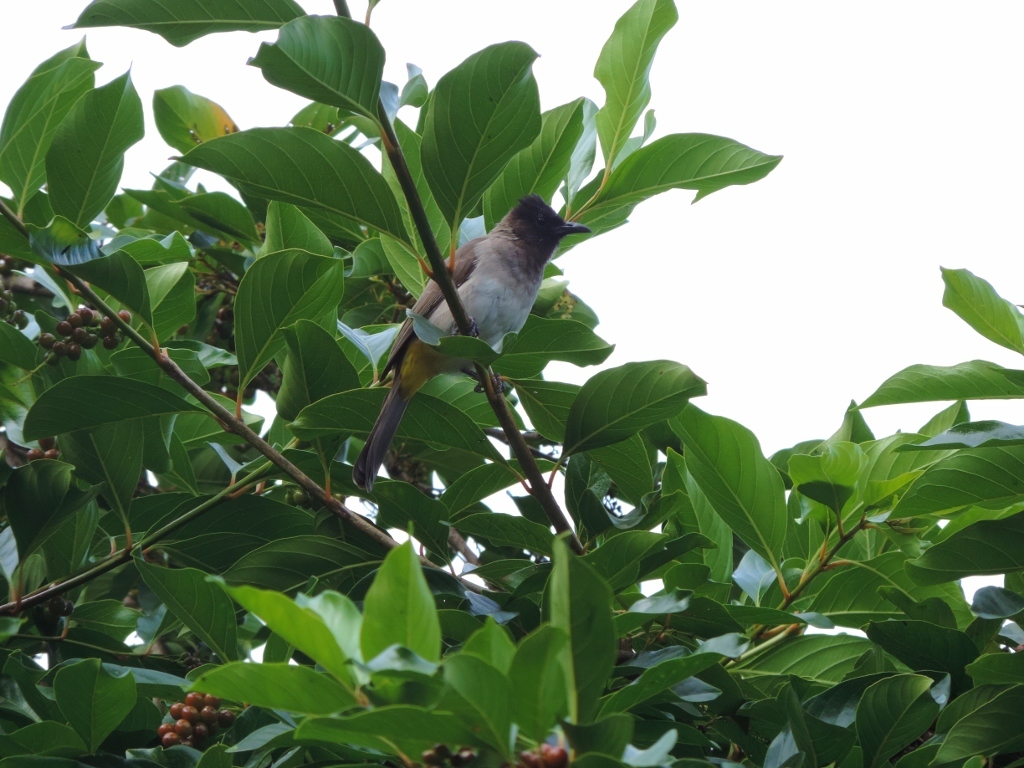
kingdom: Animalia
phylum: Chordata
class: Aves
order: Passeriformes
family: Pycnonotidae
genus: Pycnonotus
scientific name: Pycnonotus barbatus
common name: Common bulbul
